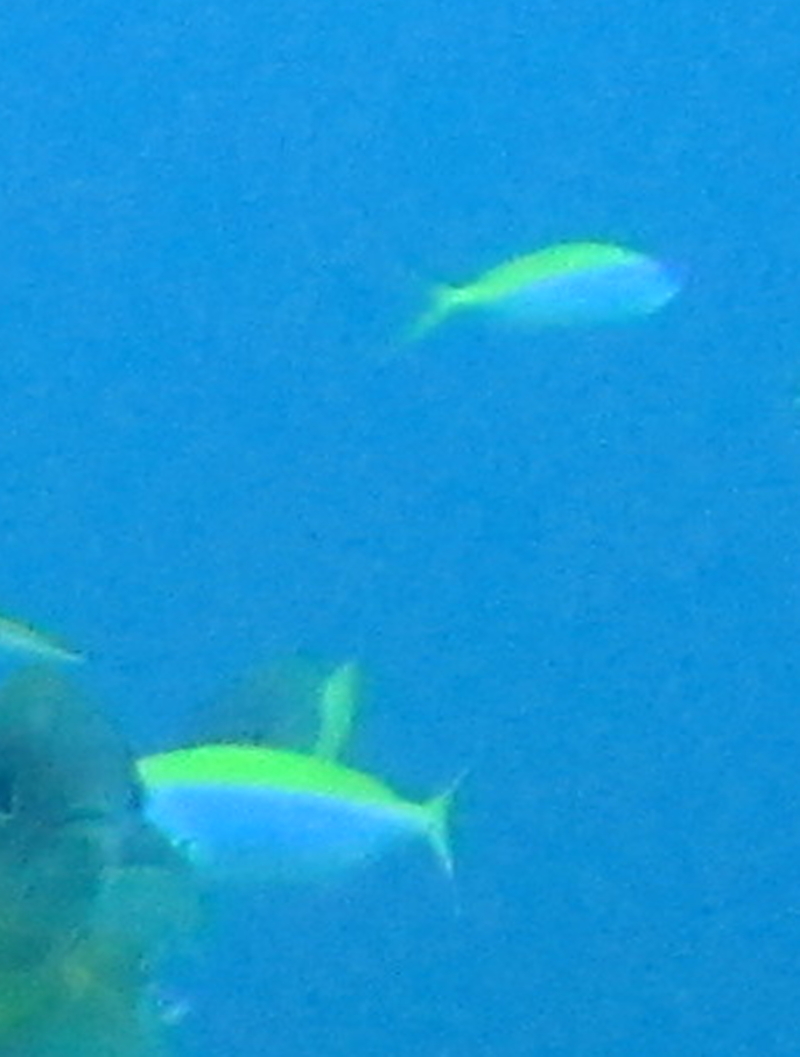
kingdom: Animalia
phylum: Chordata
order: Perciformes
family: Caesionidae
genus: Caesio
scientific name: Caesio xanthonota
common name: Yellowback fusilier
